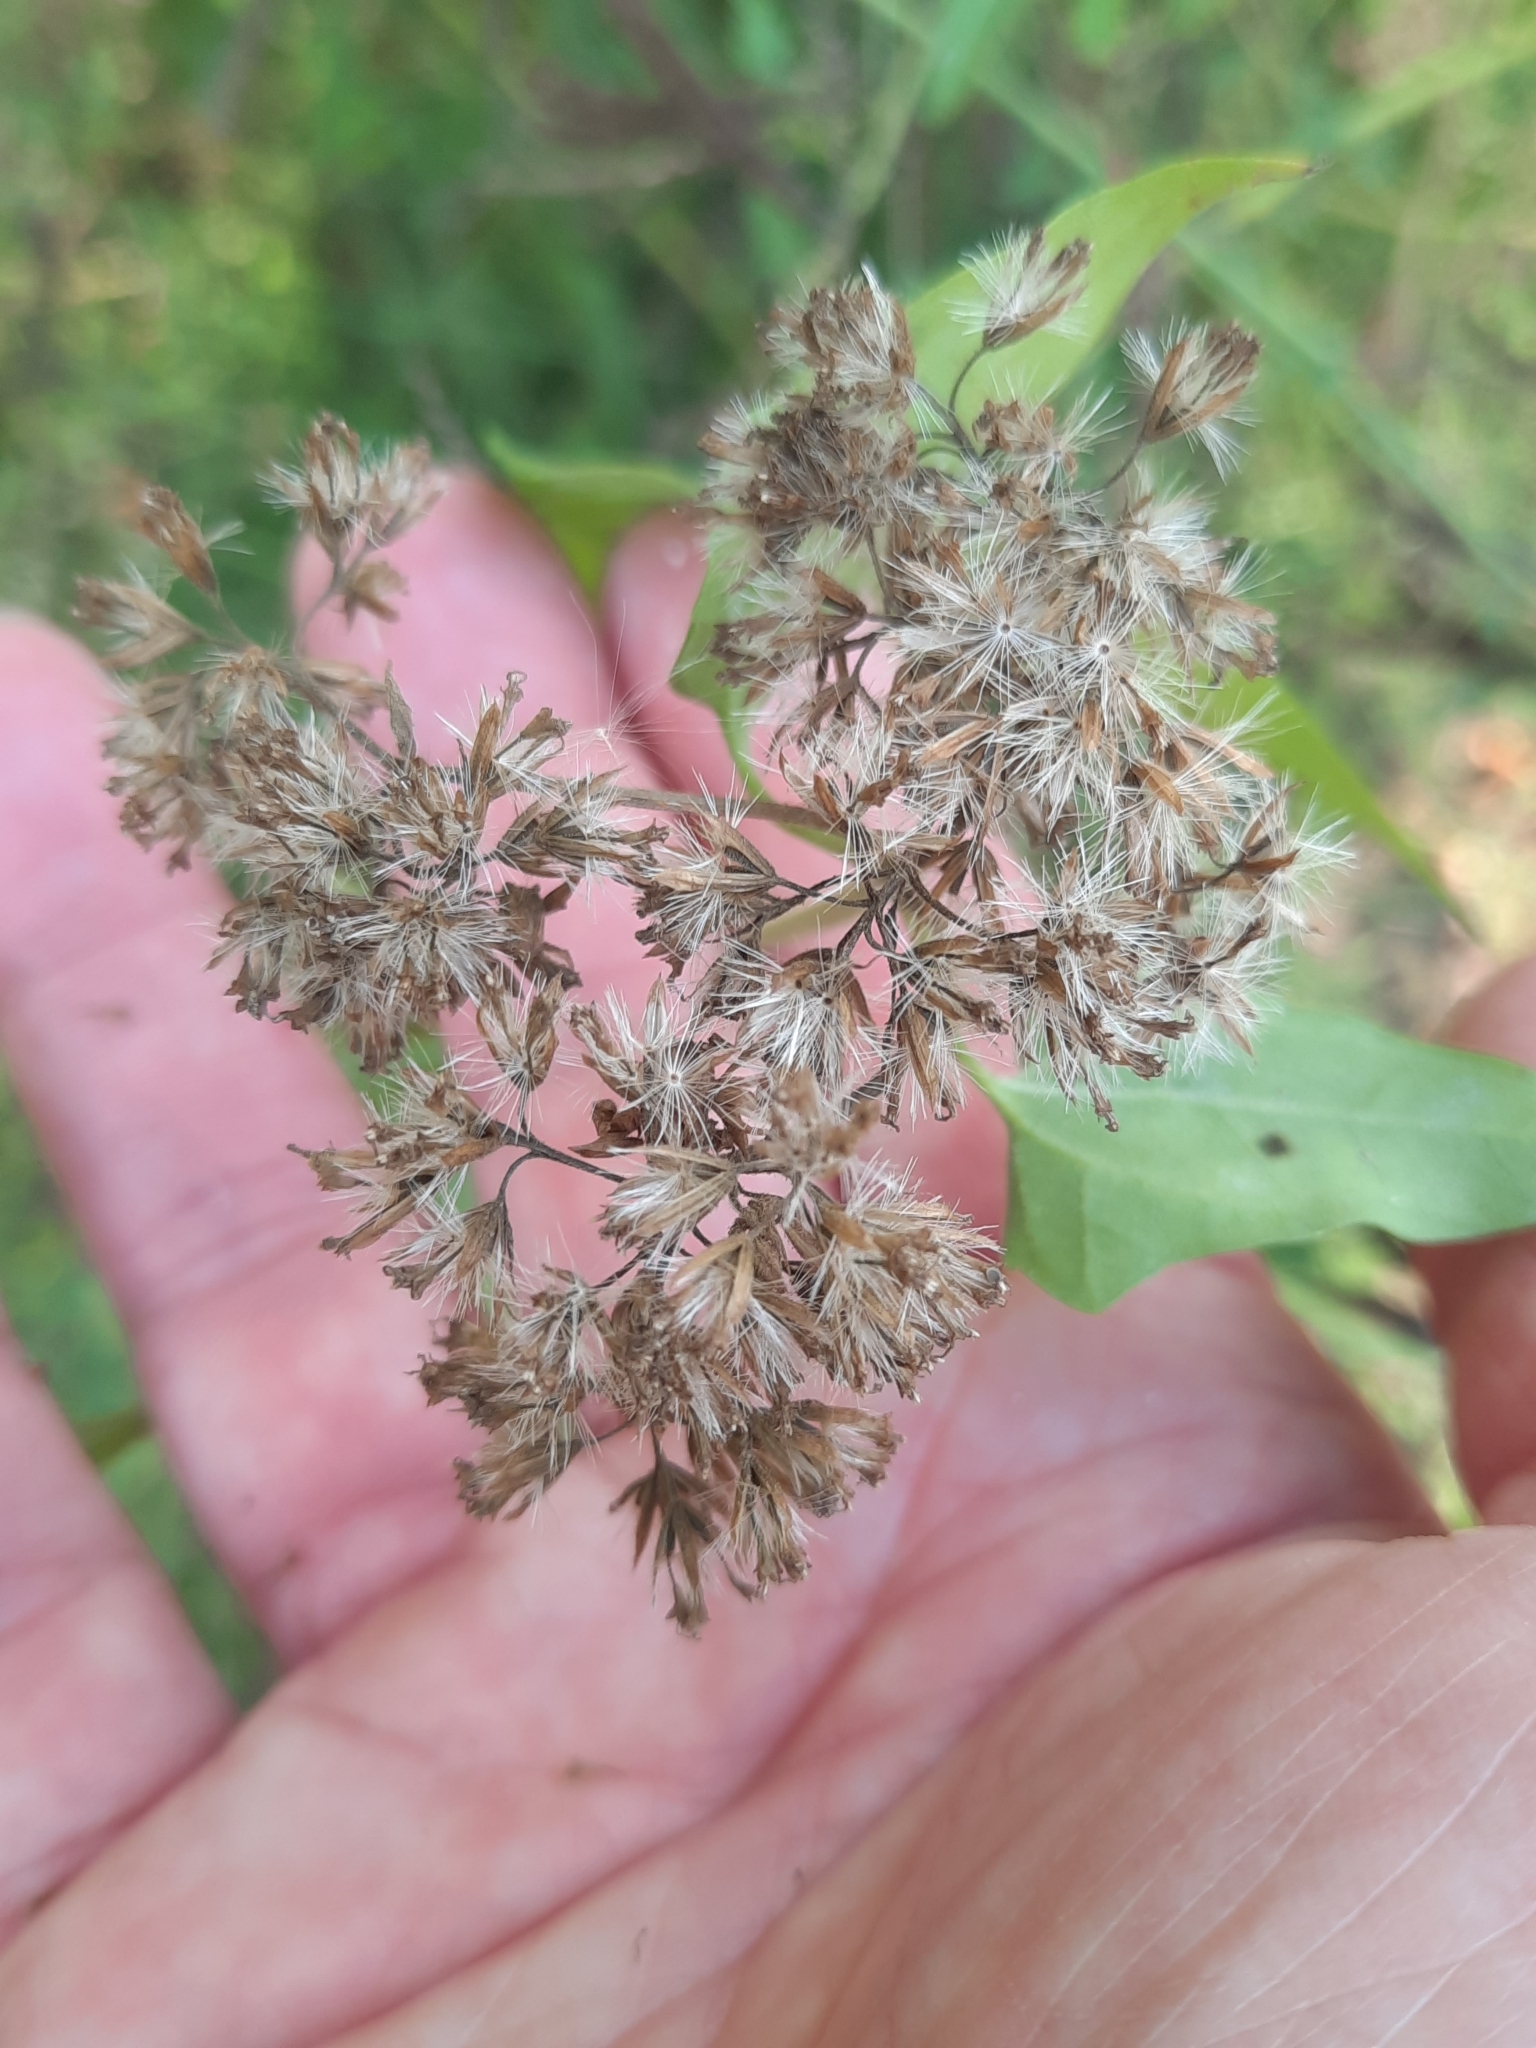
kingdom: Plantae
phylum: Tracheophyta
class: Magnoliopsida
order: Asterales
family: Asteraceae
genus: Mikania
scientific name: Mikania scandens
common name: Climbing hempvine
